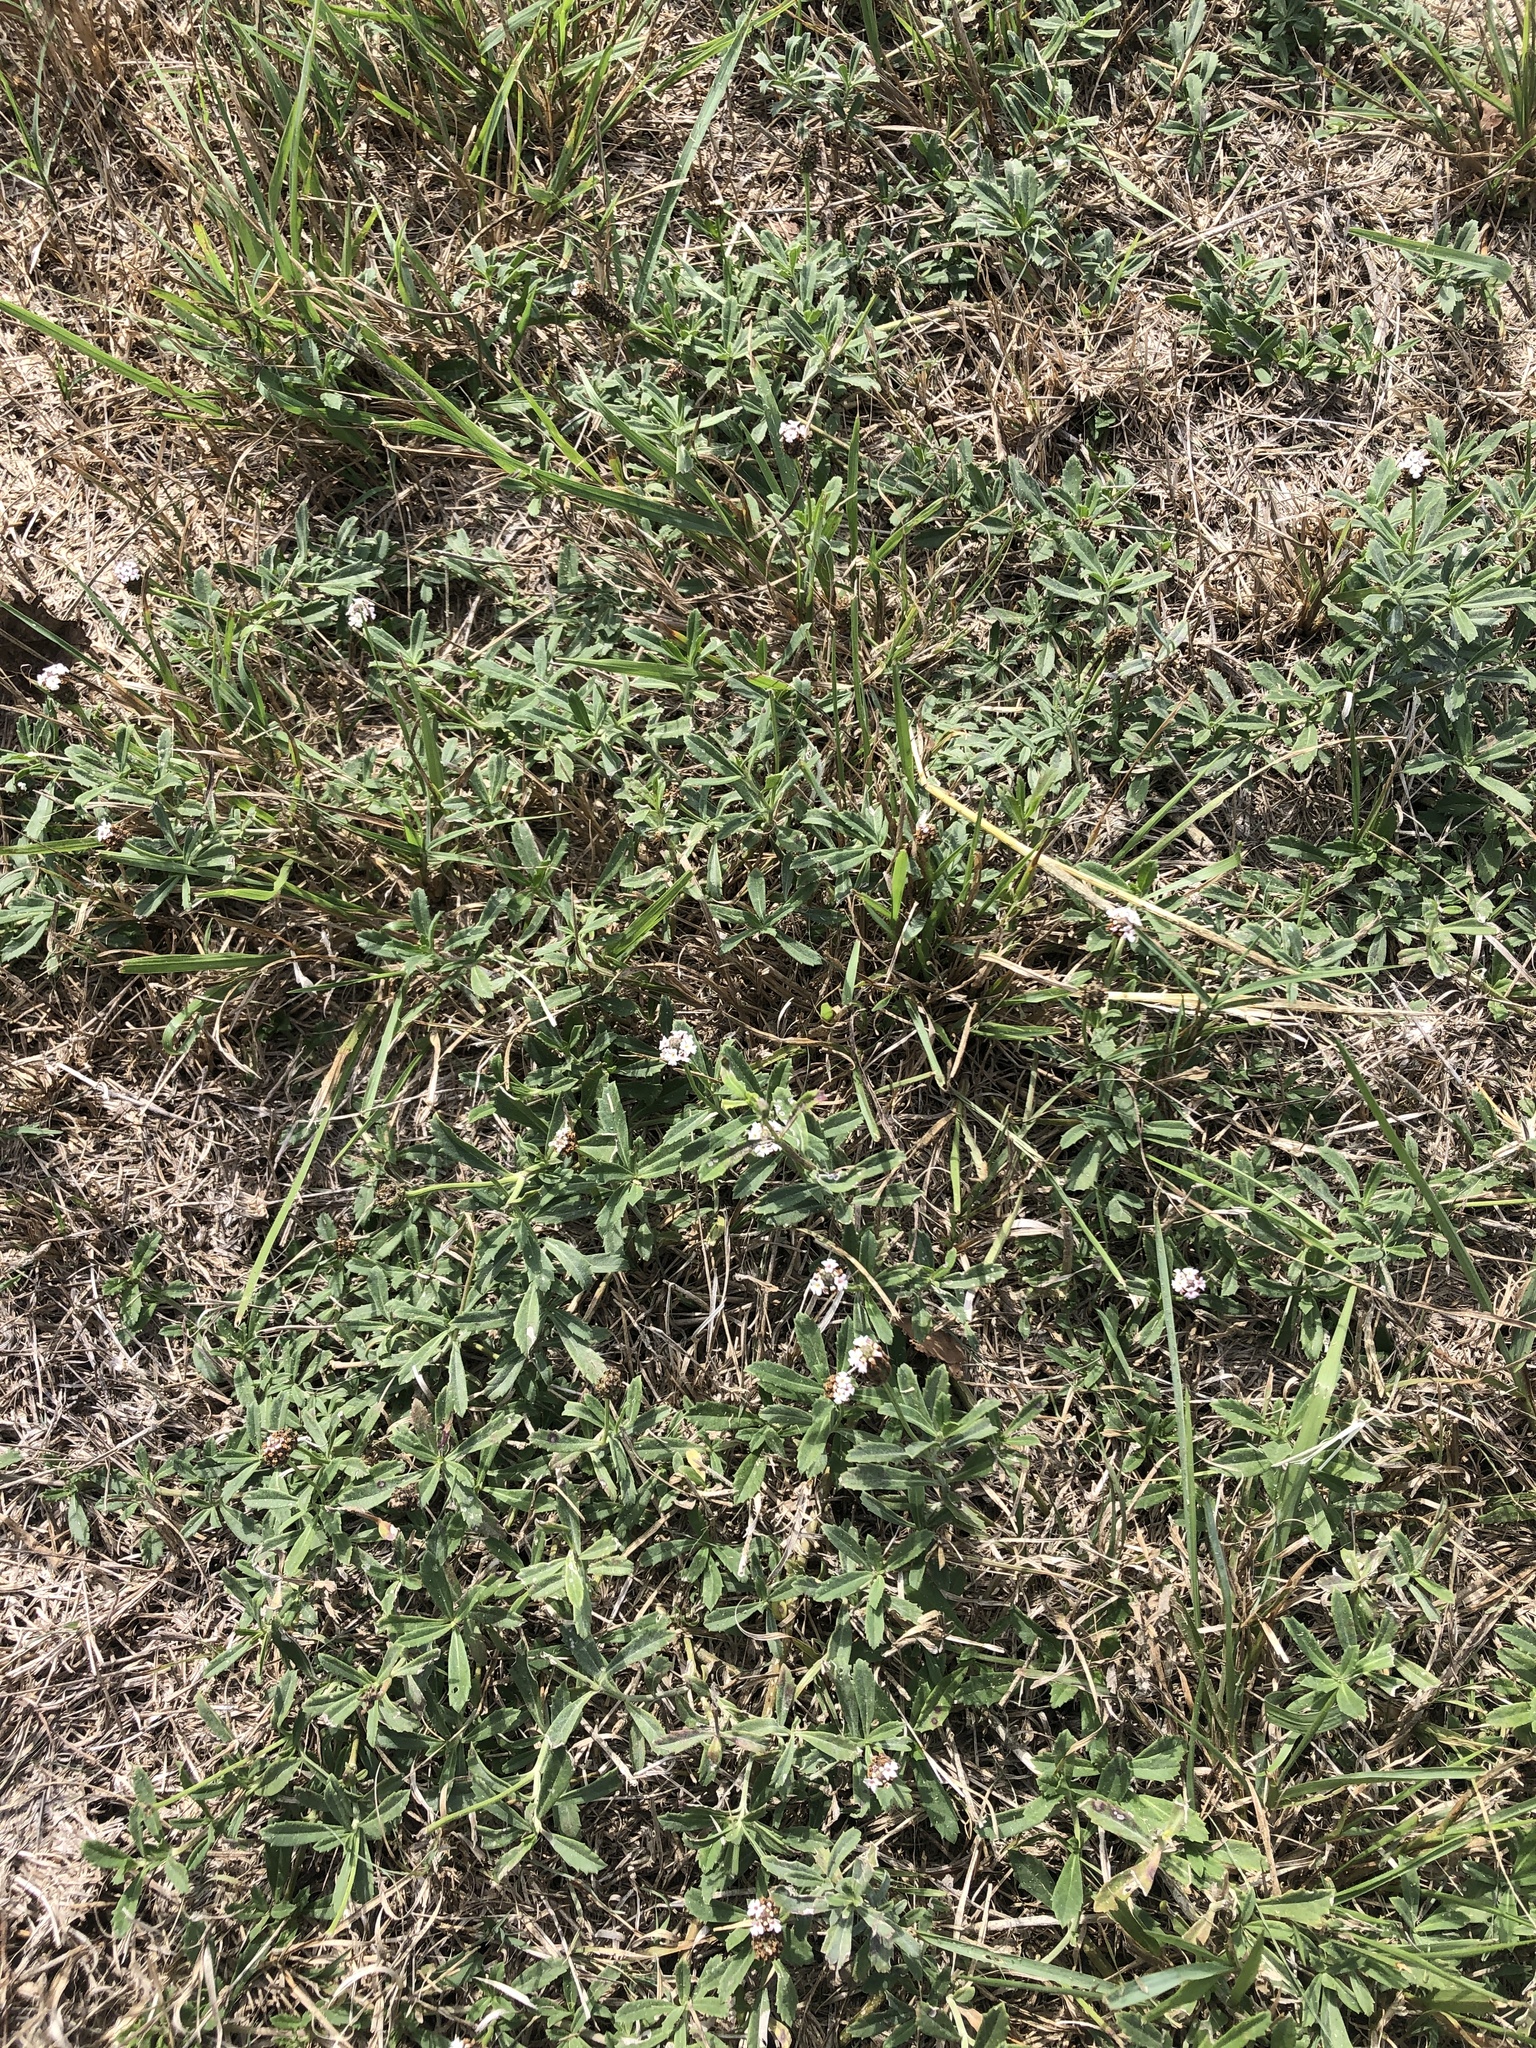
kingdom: Plantae
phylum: Tracheophyta
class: Magnoliopsida
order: Lamiales
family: Verbenaceae
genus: Phyla
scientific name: Phyla nodiflora
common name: Frogfruit
